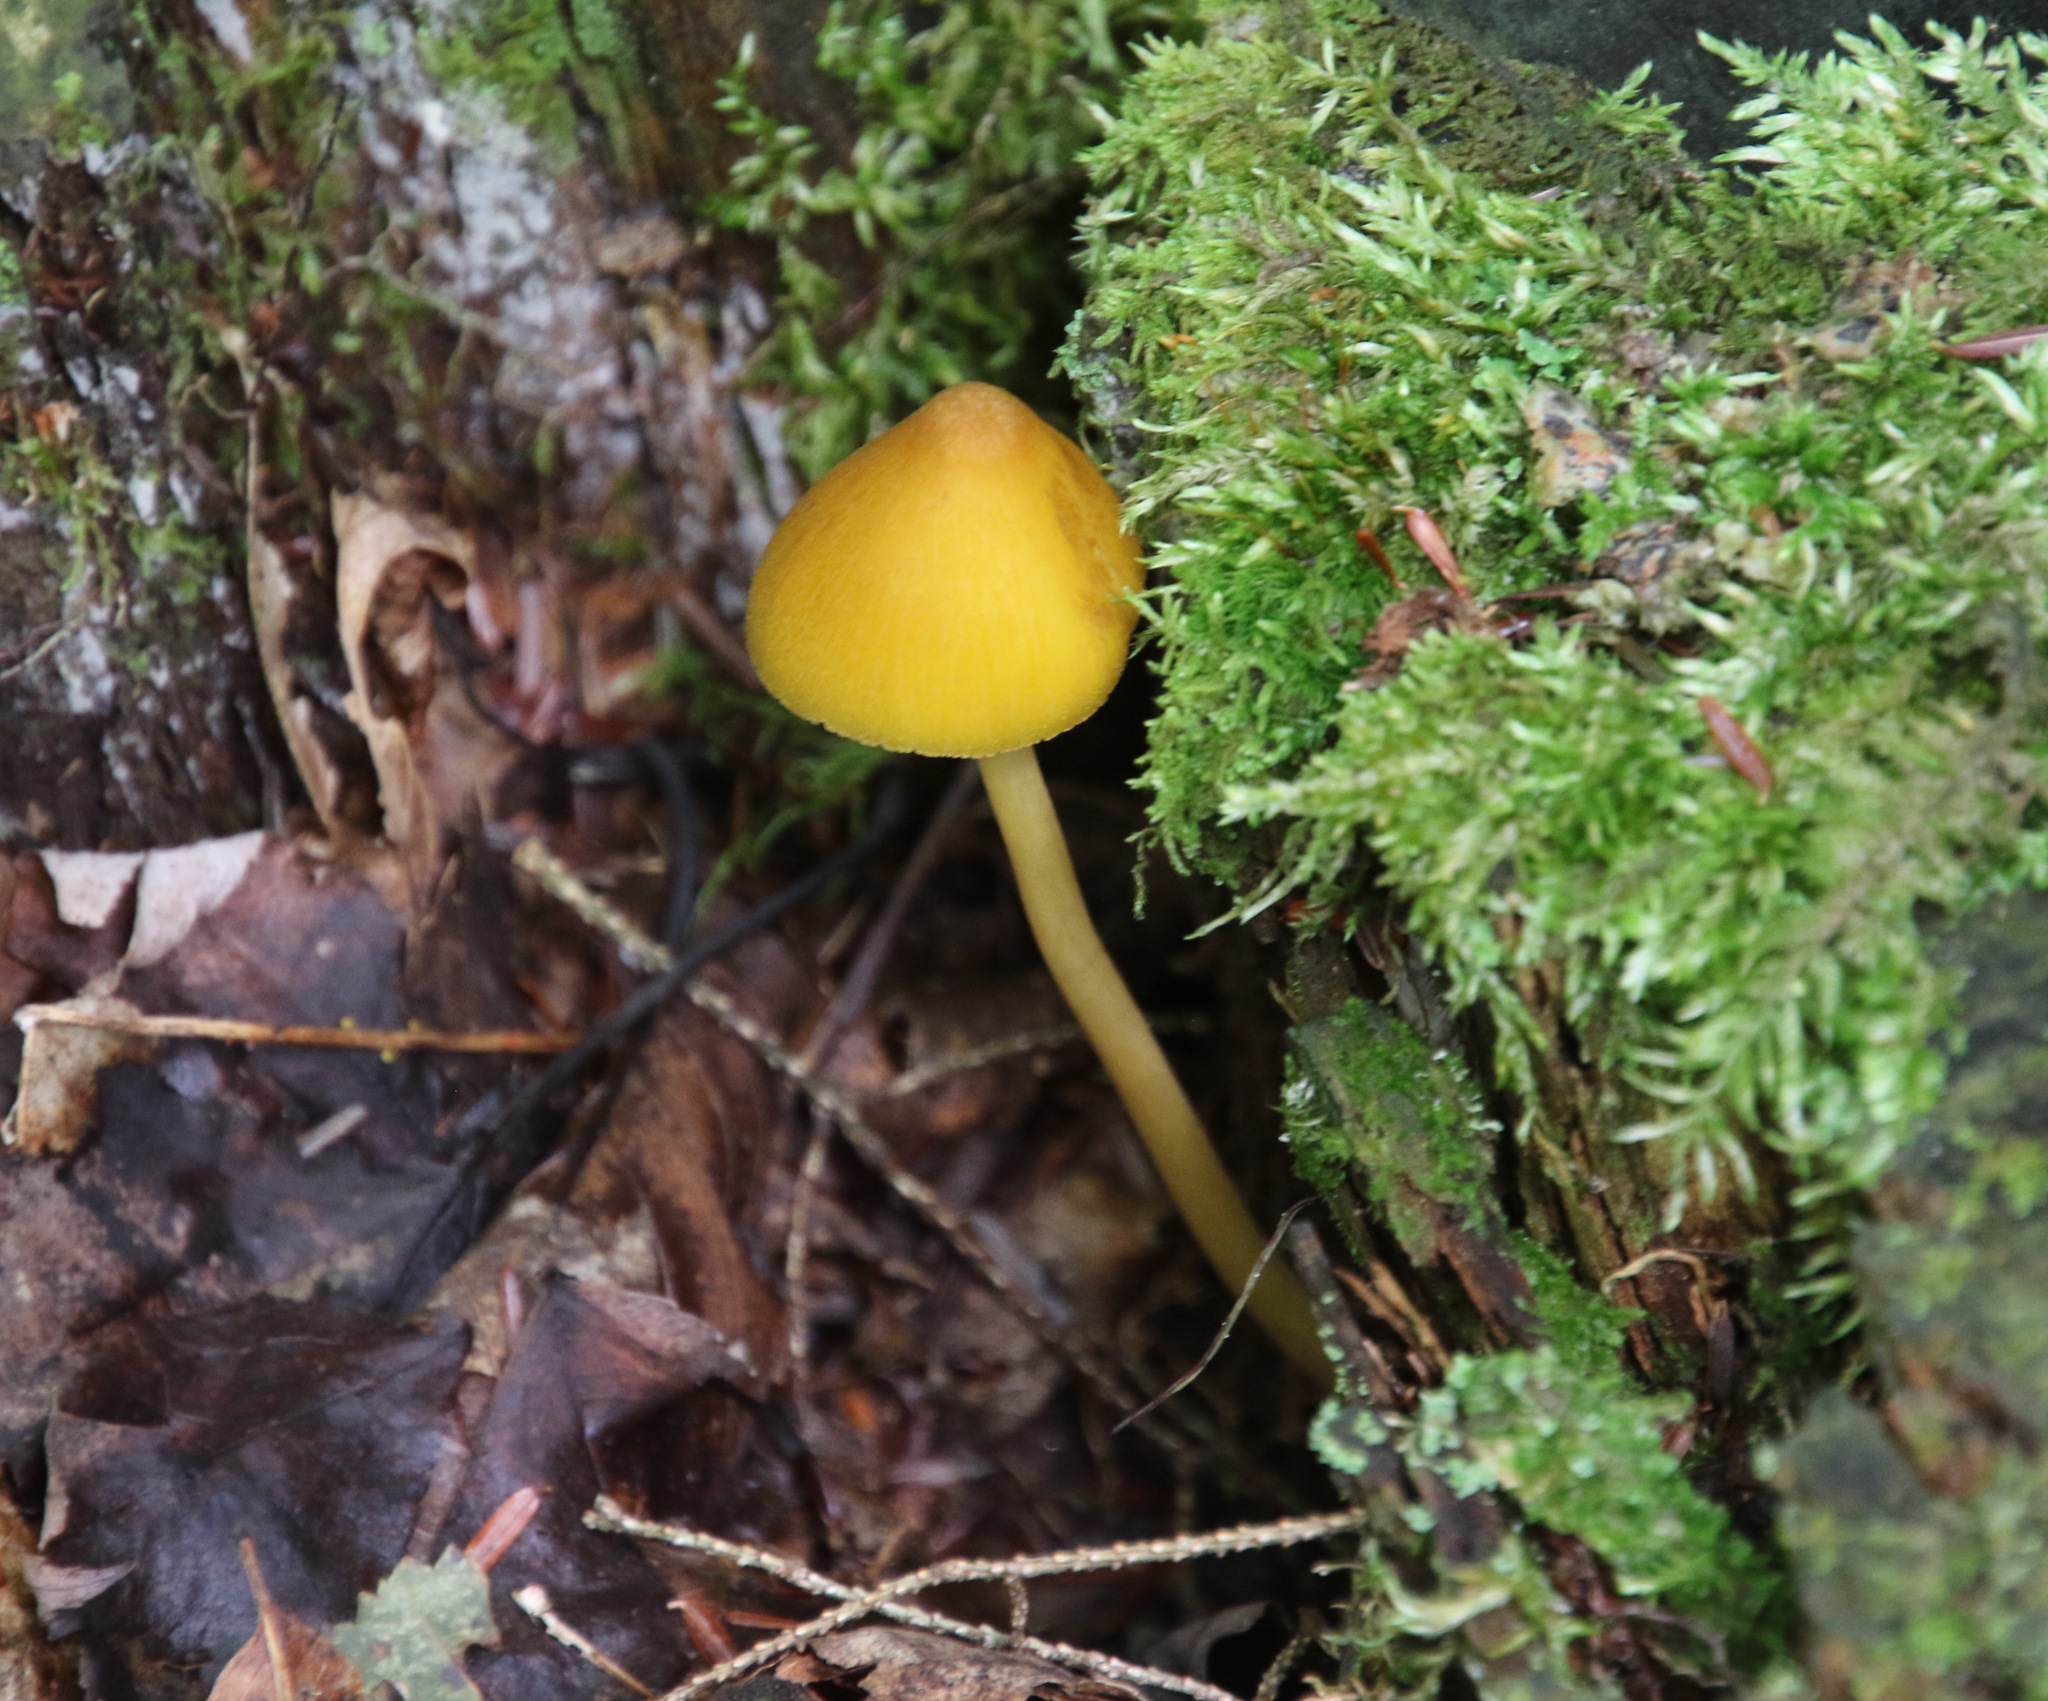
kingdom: Fungi
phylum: Basidiomycota
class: Agaricomycetes
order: Agaricales
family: Entolomataceae
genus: Entoloma
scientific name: Entoloma luteum
